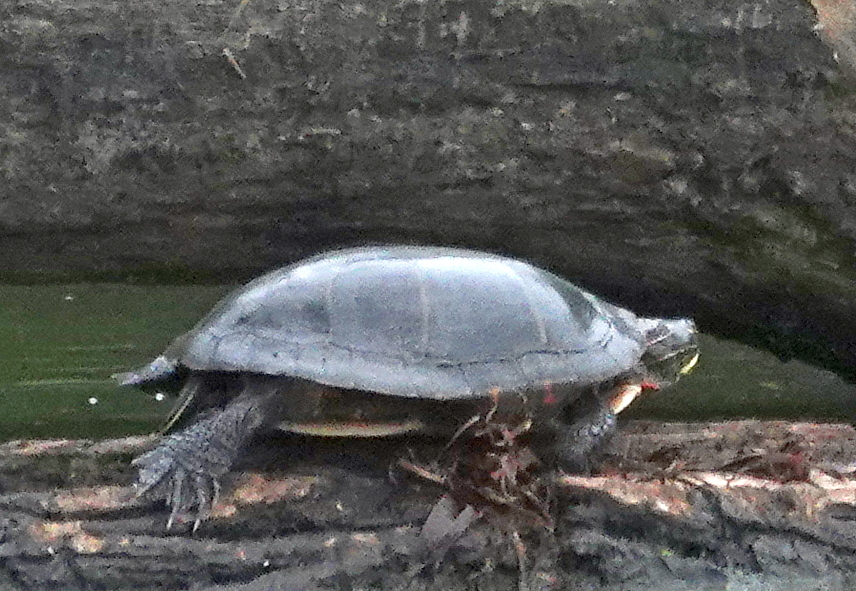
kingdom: Animalia
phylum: Chordata
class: Testudines
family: Emydidae
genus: Chrysemys
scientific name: Chrysemys picta
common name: Painted turtle
